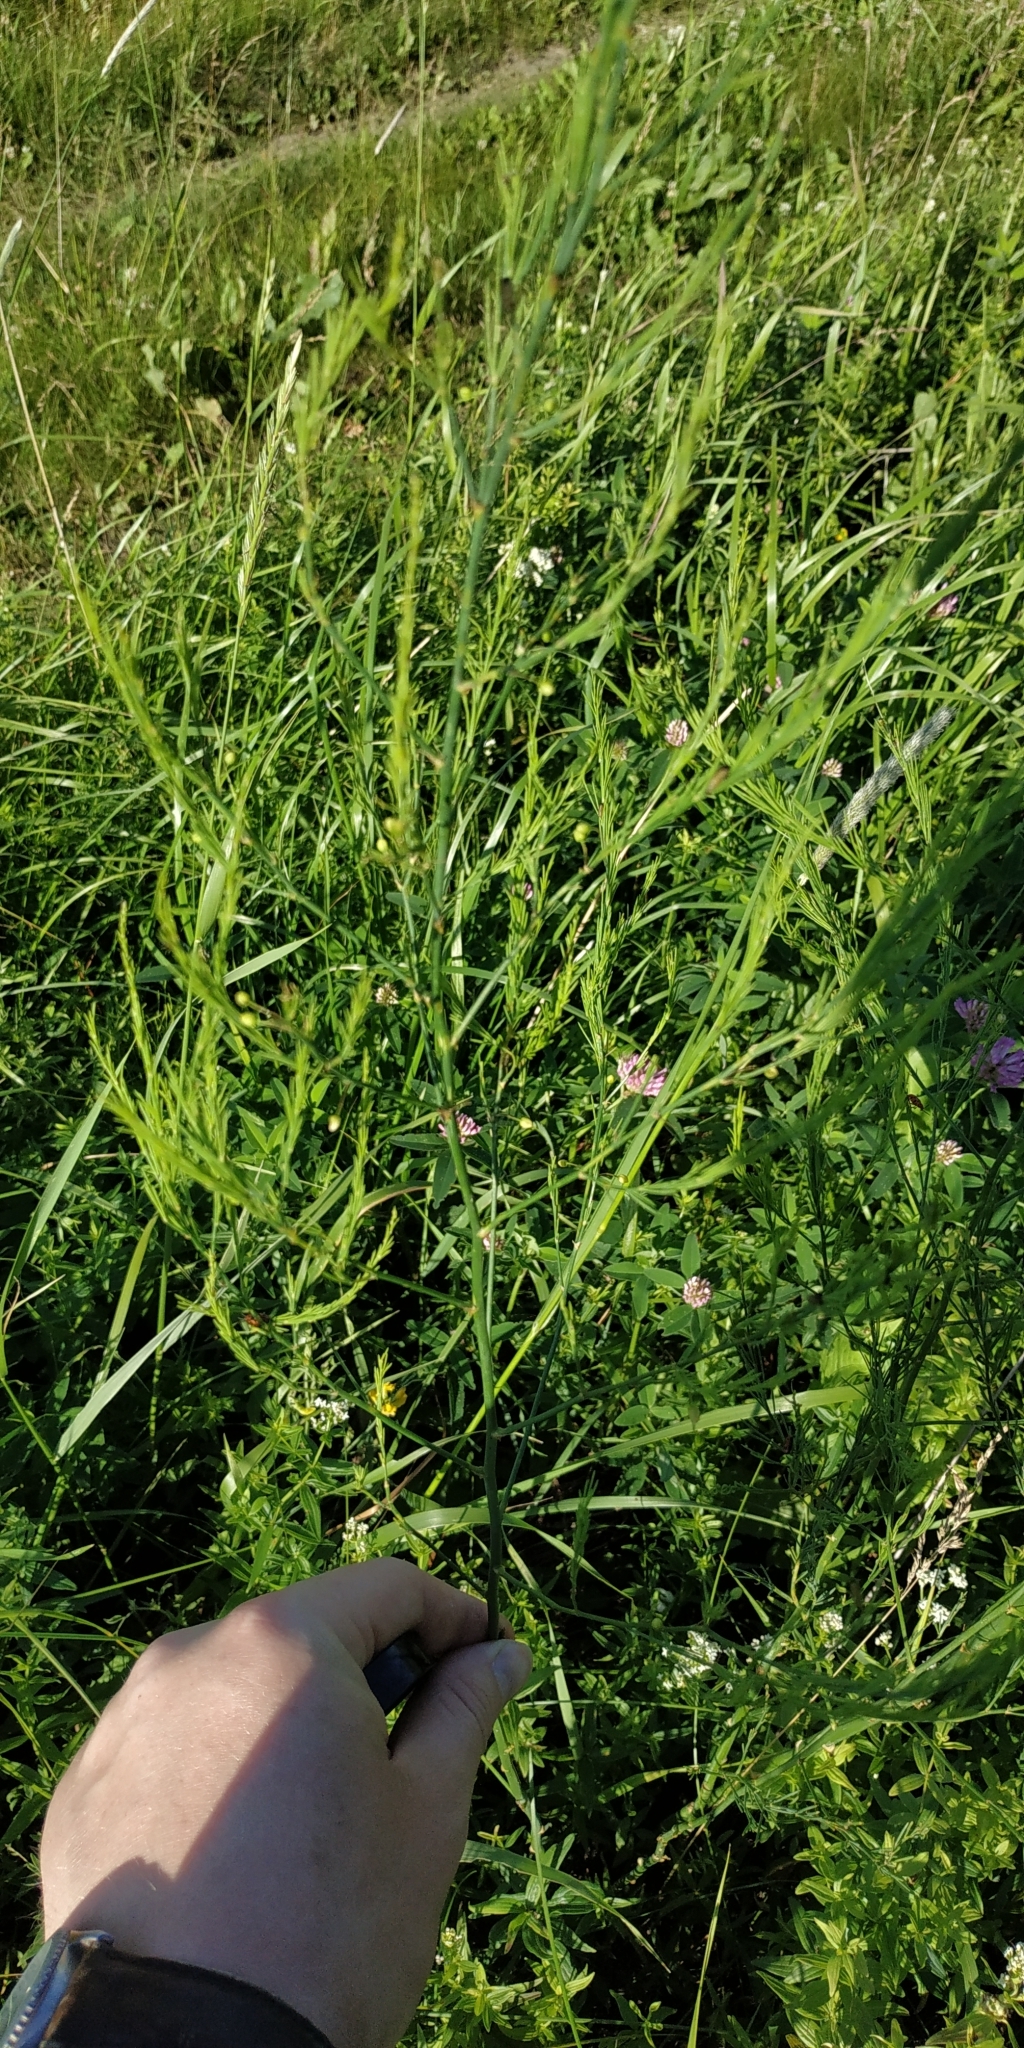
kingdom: Plantae
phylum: Tracheophyta
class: Liliopsida
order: Asparagales
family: Asparagaceae
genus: Asparagus
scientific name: Asparagus officinalis
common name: Garden asparagus
